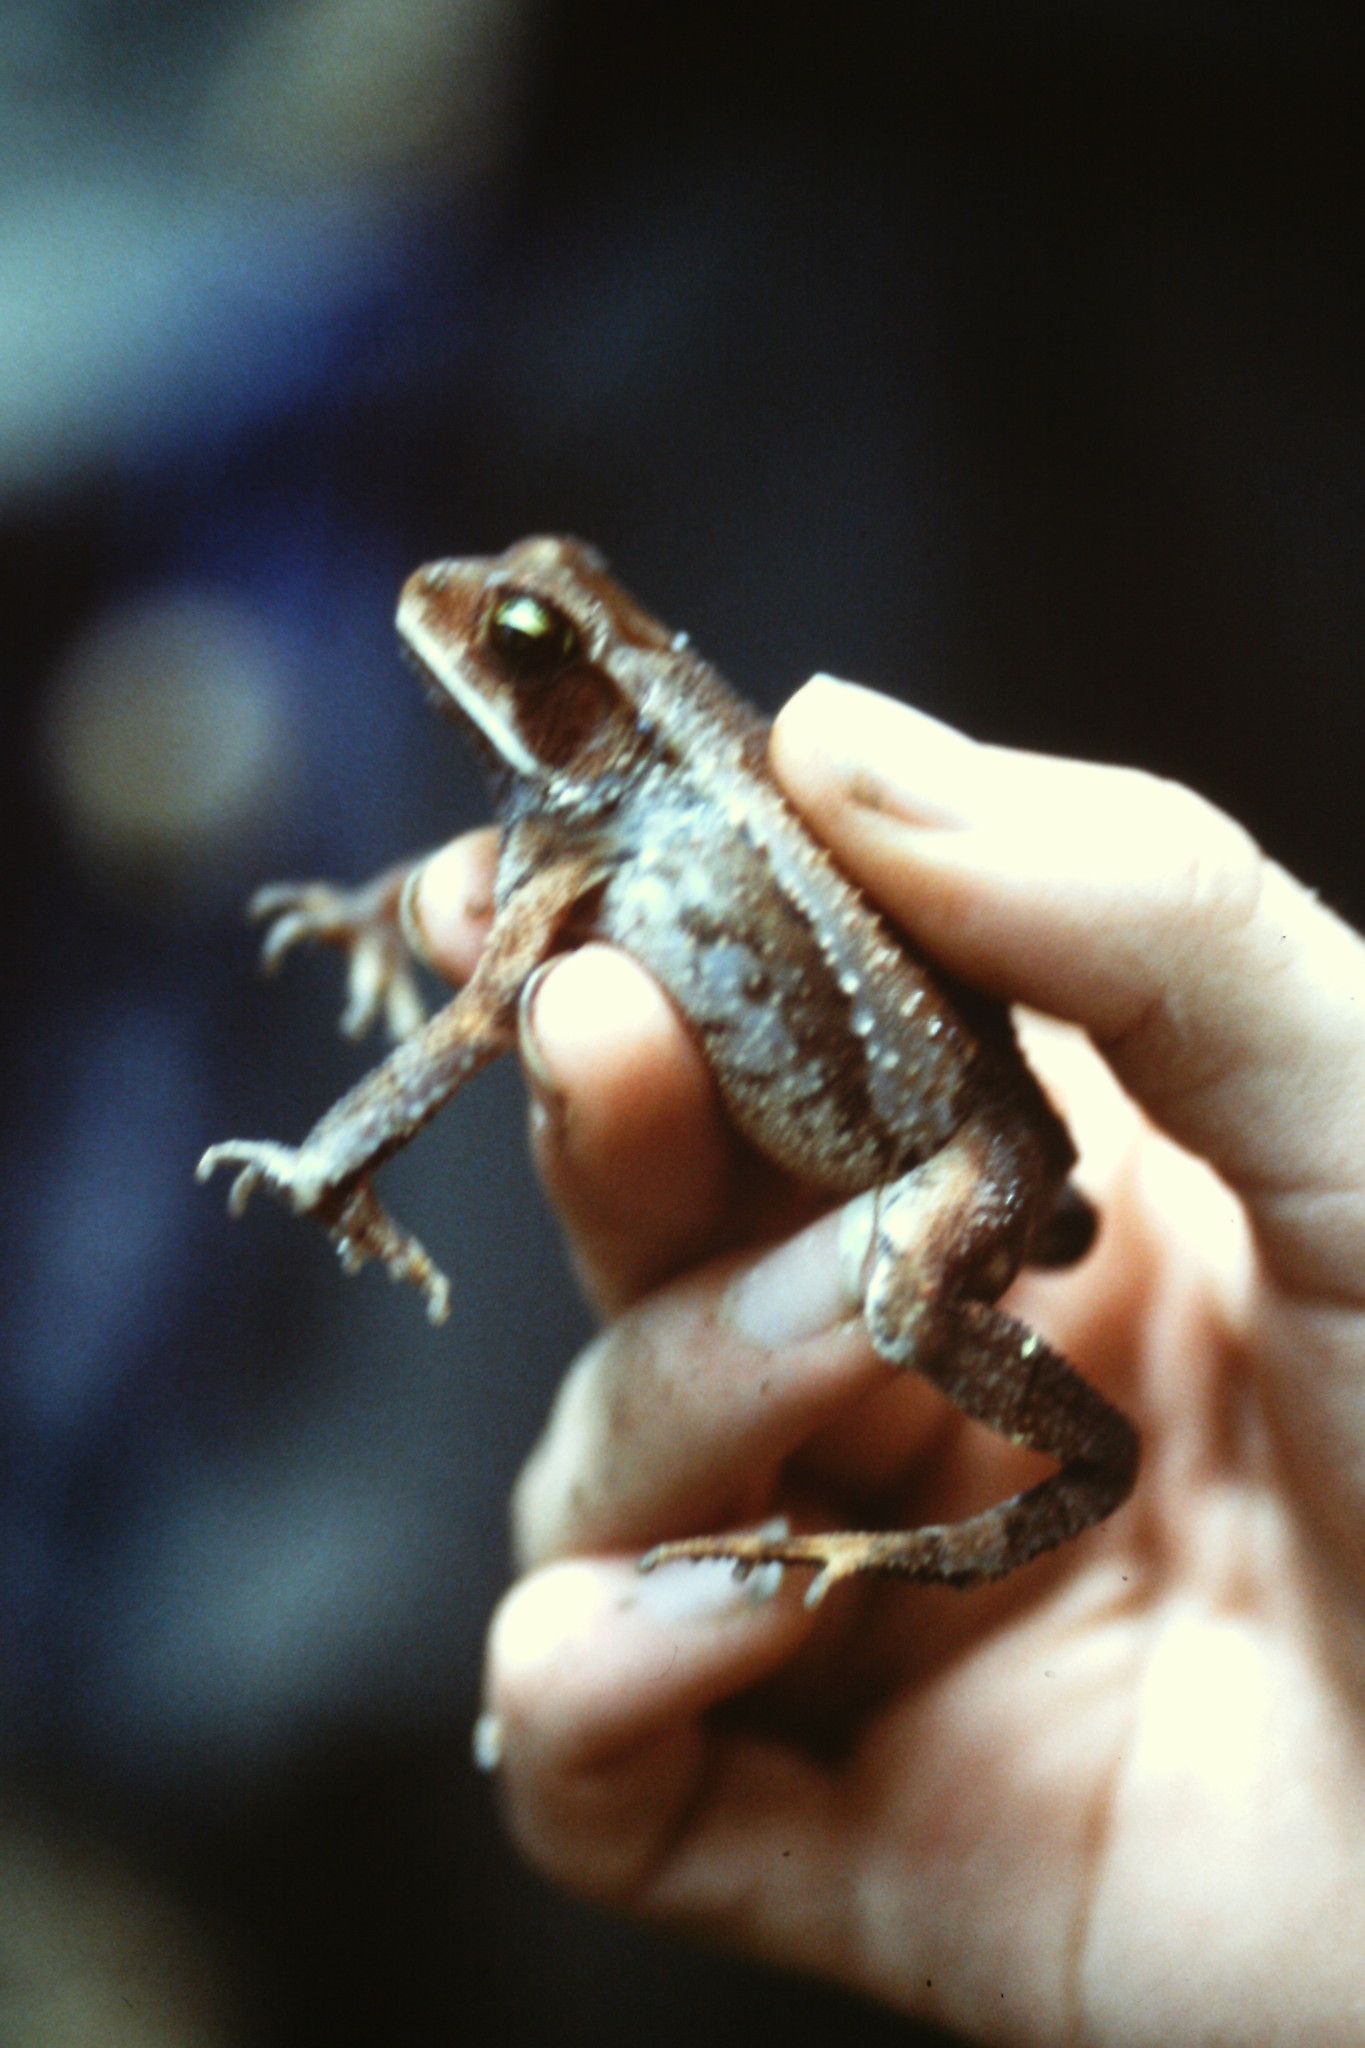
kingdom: Animalia
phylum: Chordata
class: Amphibia
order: Anura
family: Bufonidae
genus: Incilius
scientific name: Incilius aucoinae
